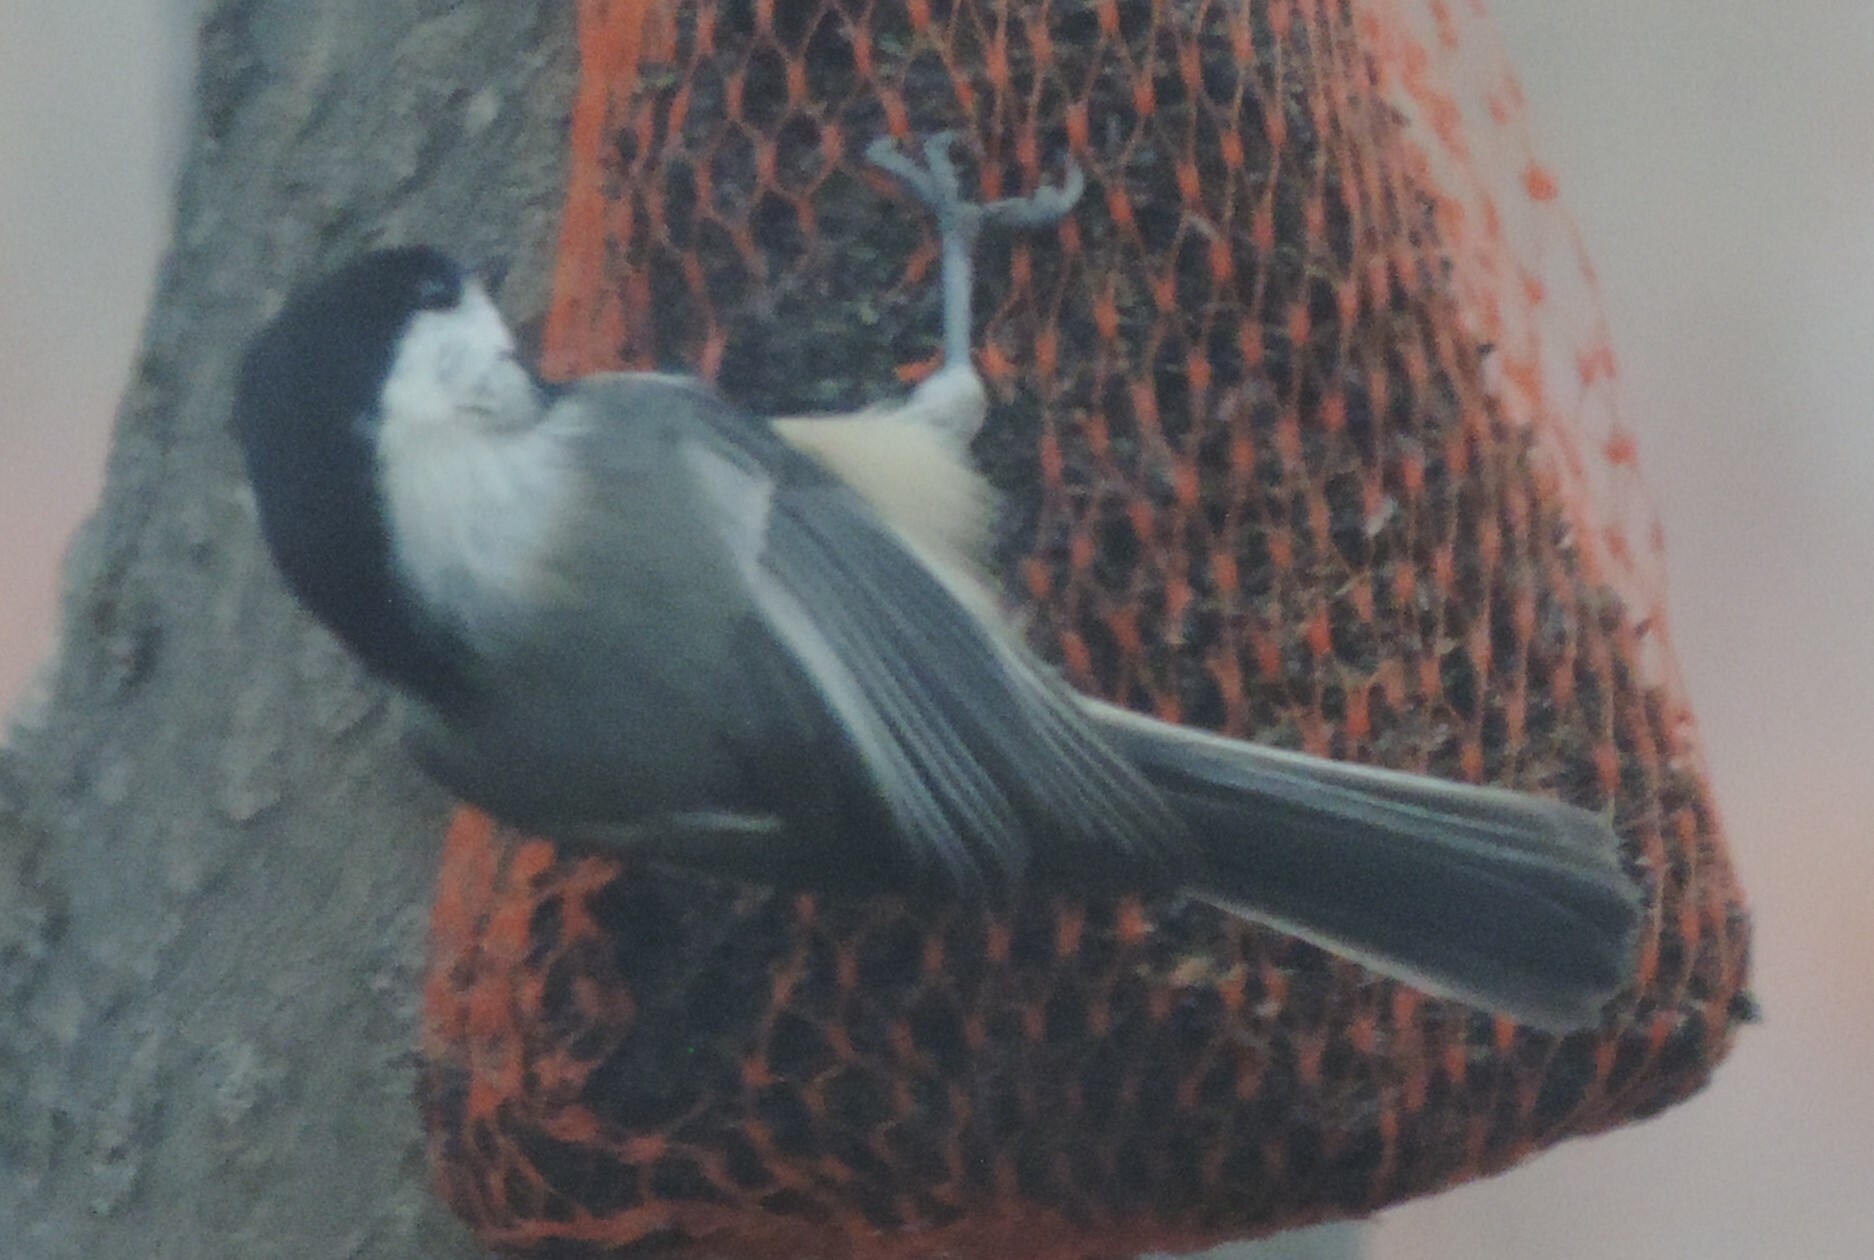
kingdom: Animalia
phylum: Chordata
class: Aves
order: Passeriformes
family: Paridae
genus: Poecile
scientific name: Poecile atricapillus
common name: Black-capped chickadee
